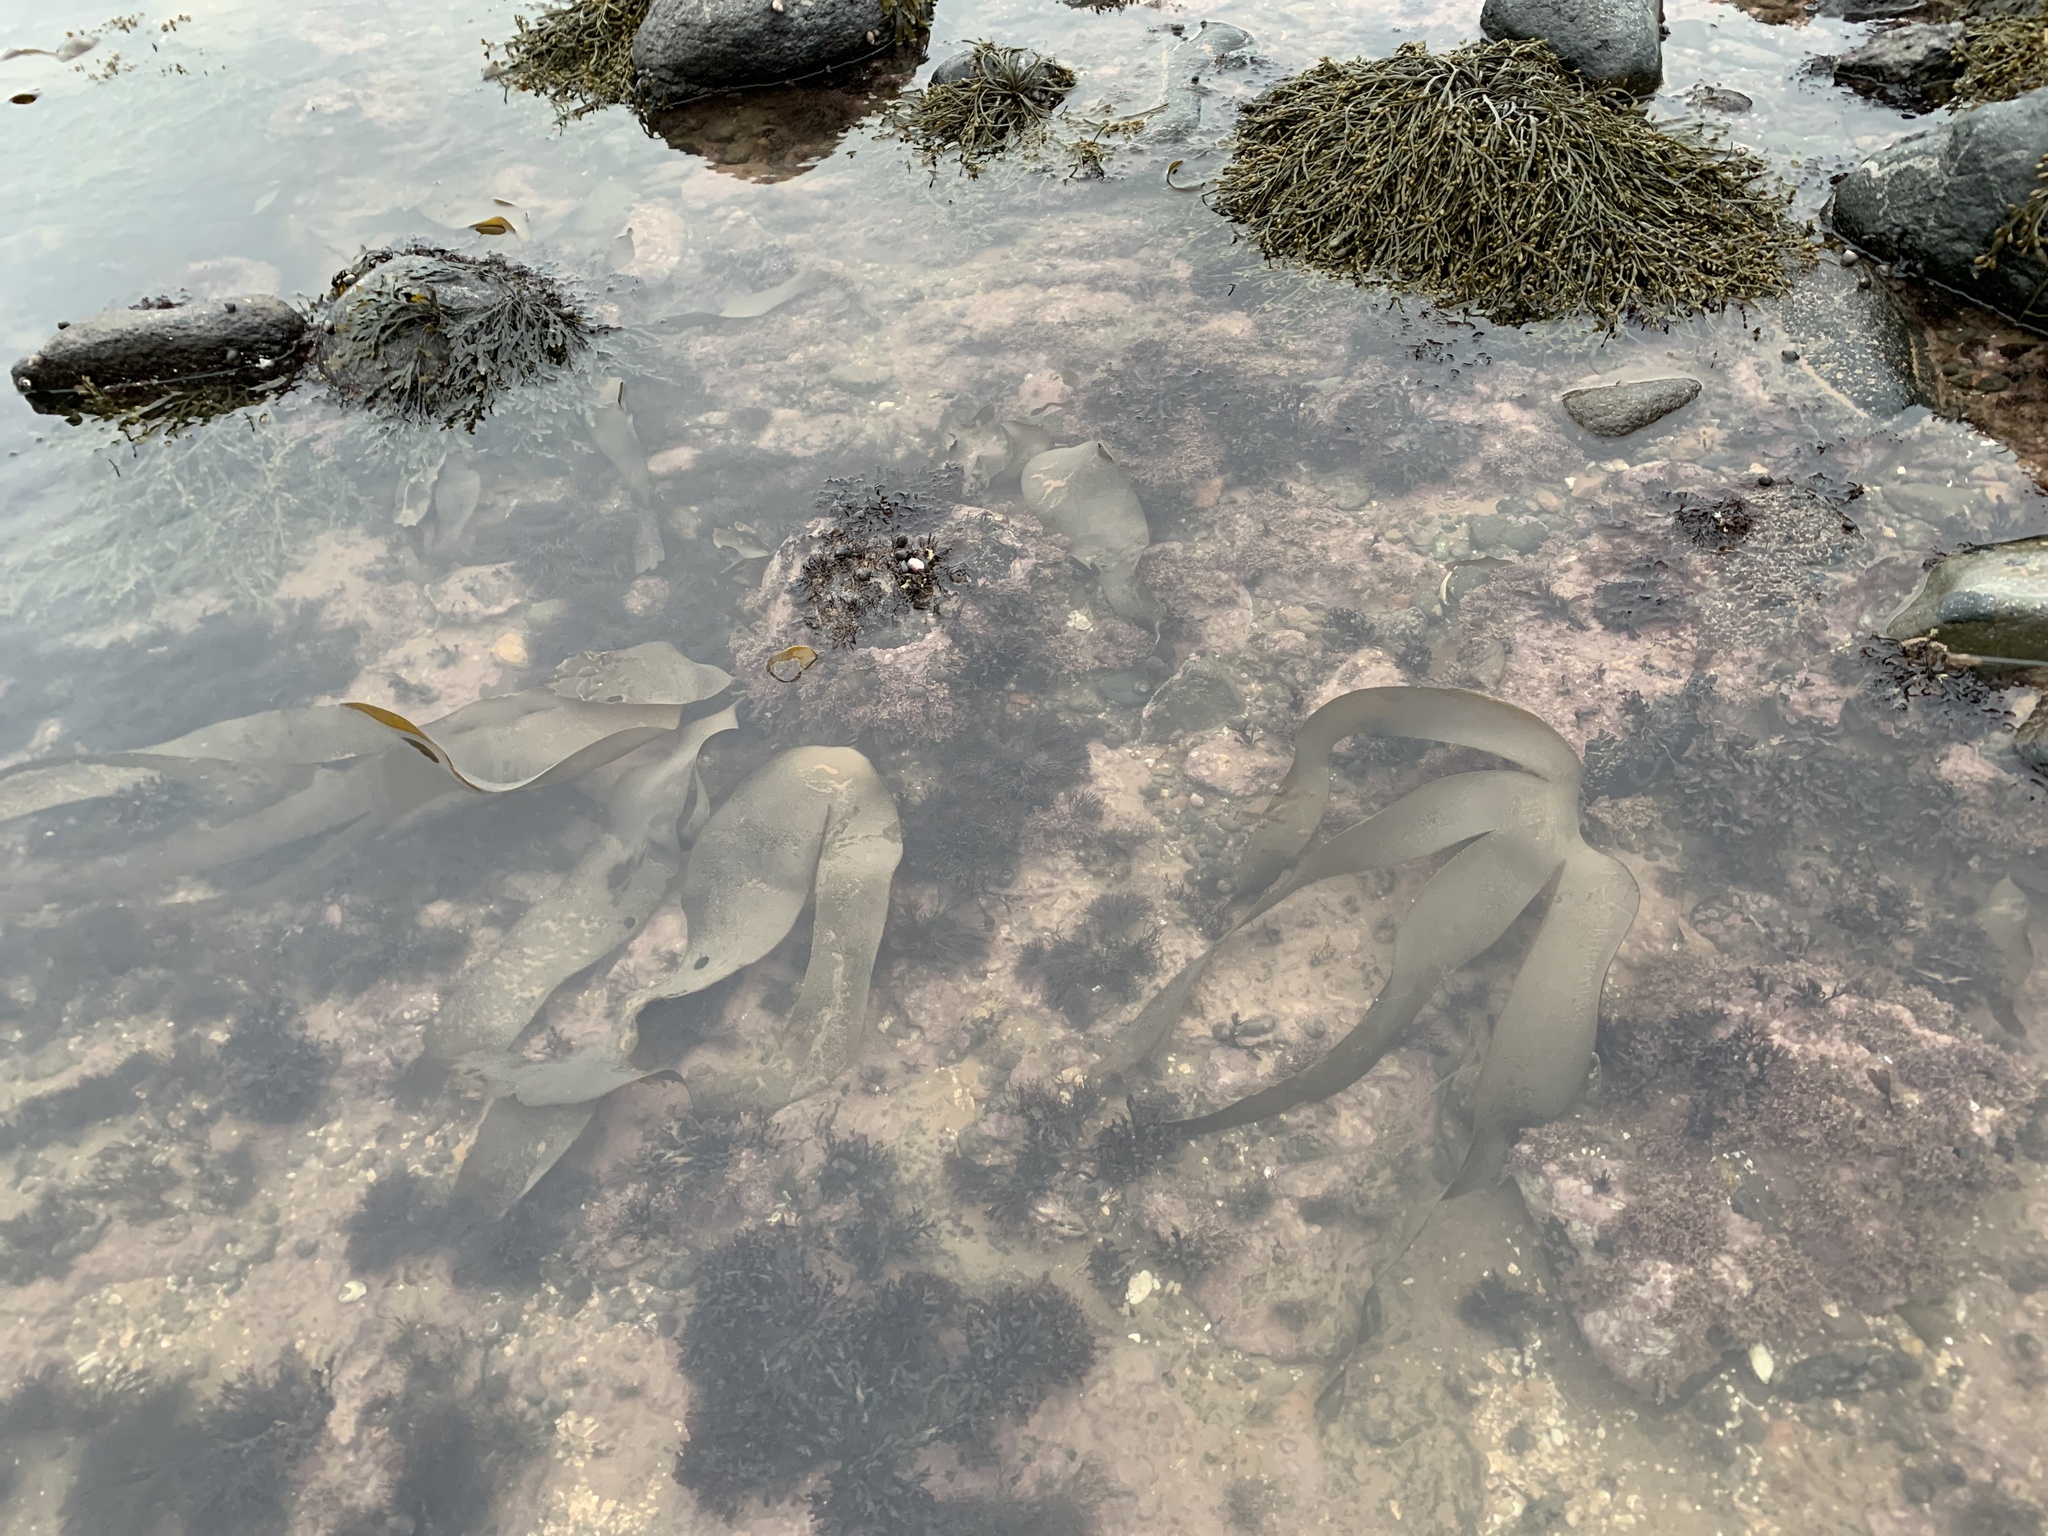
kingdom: Chromista
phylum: Ochrophyta
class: Phaeophyceae
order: Laminariales
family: Laminariaceae
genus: Laminaria
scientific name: Laminaria digitata
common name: Oarweed
